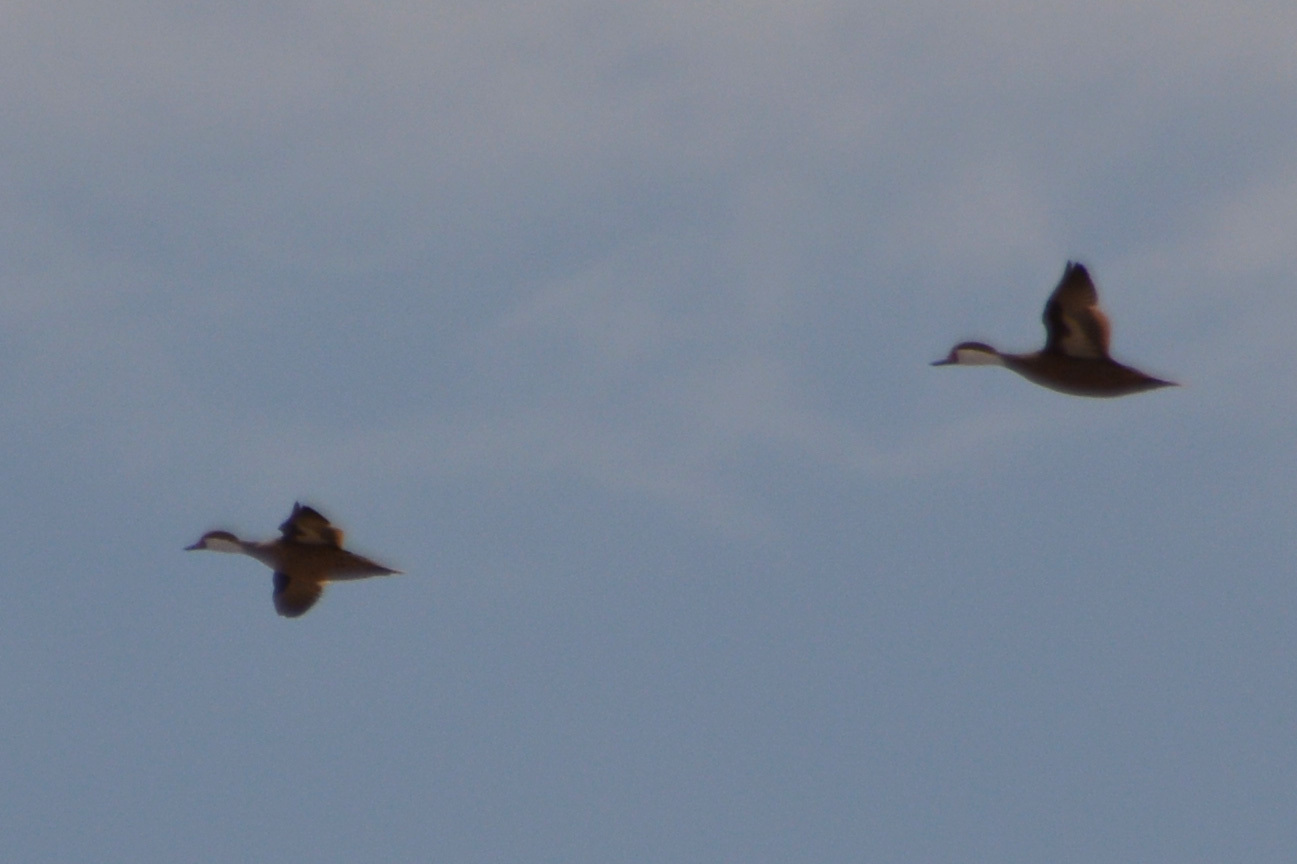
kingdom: Animalia
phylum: Chordata
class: Aves
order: Anseriformes
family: Anatidae
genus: Anas
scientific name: Anas bahamensis
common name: White-cheeked pintail
